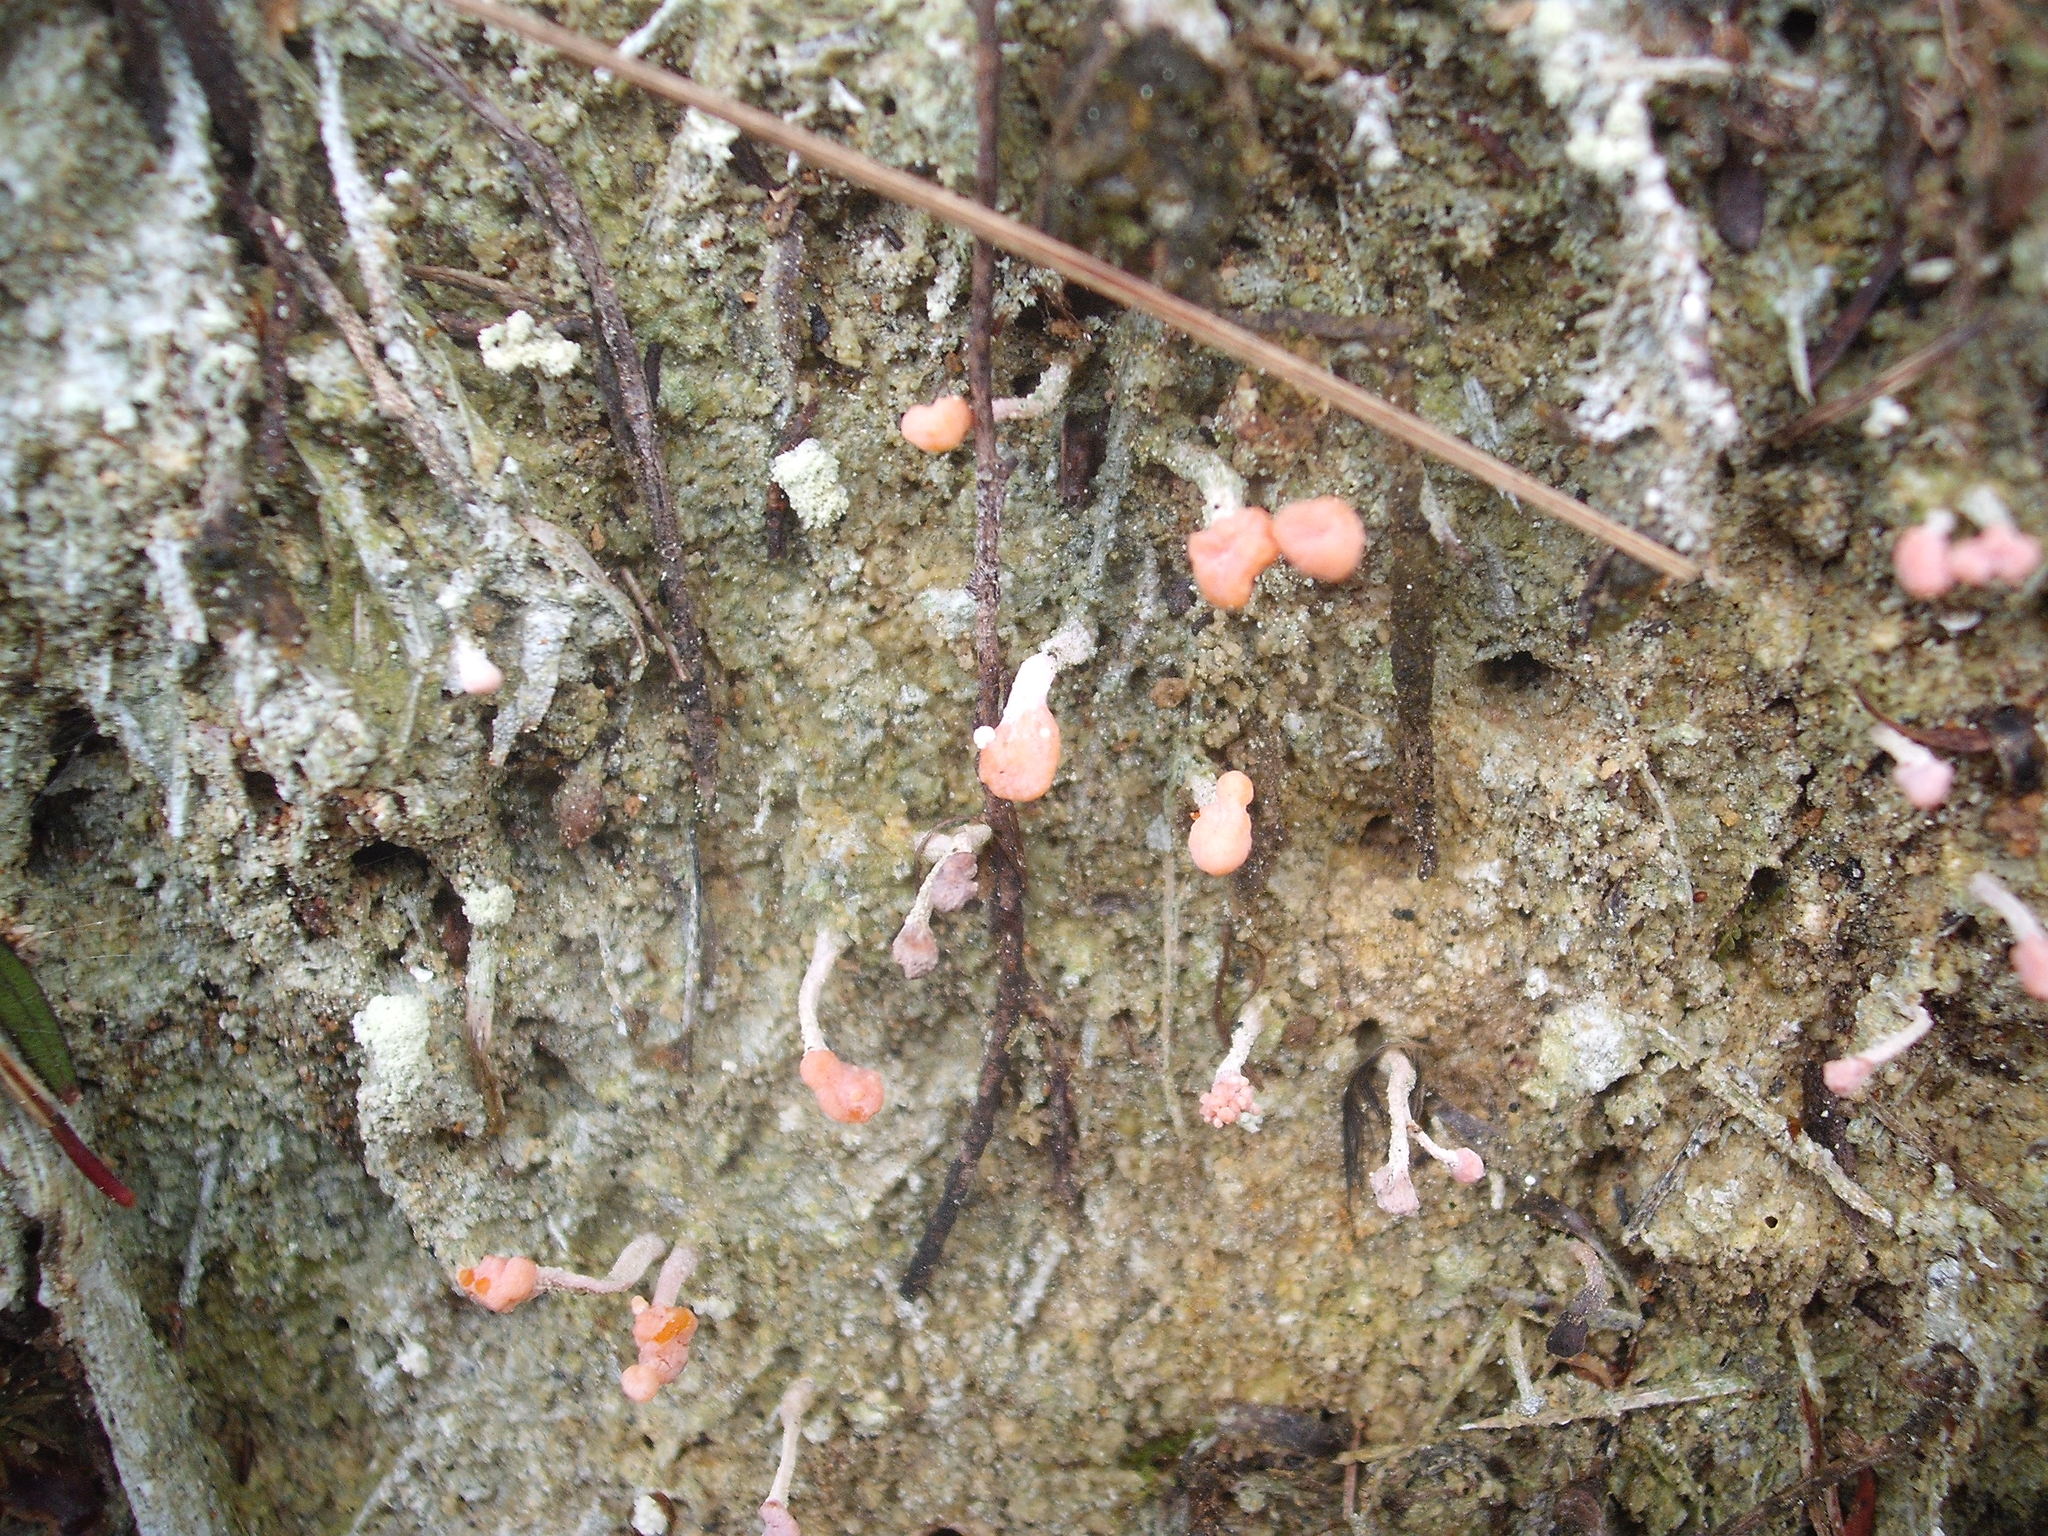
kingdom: Fungi
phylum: Ascomycota
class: Lecanoromycetes
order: Pertusariales
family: Icmadophilaceae
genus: Dibaeis
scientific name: Dibaeis arcuata
